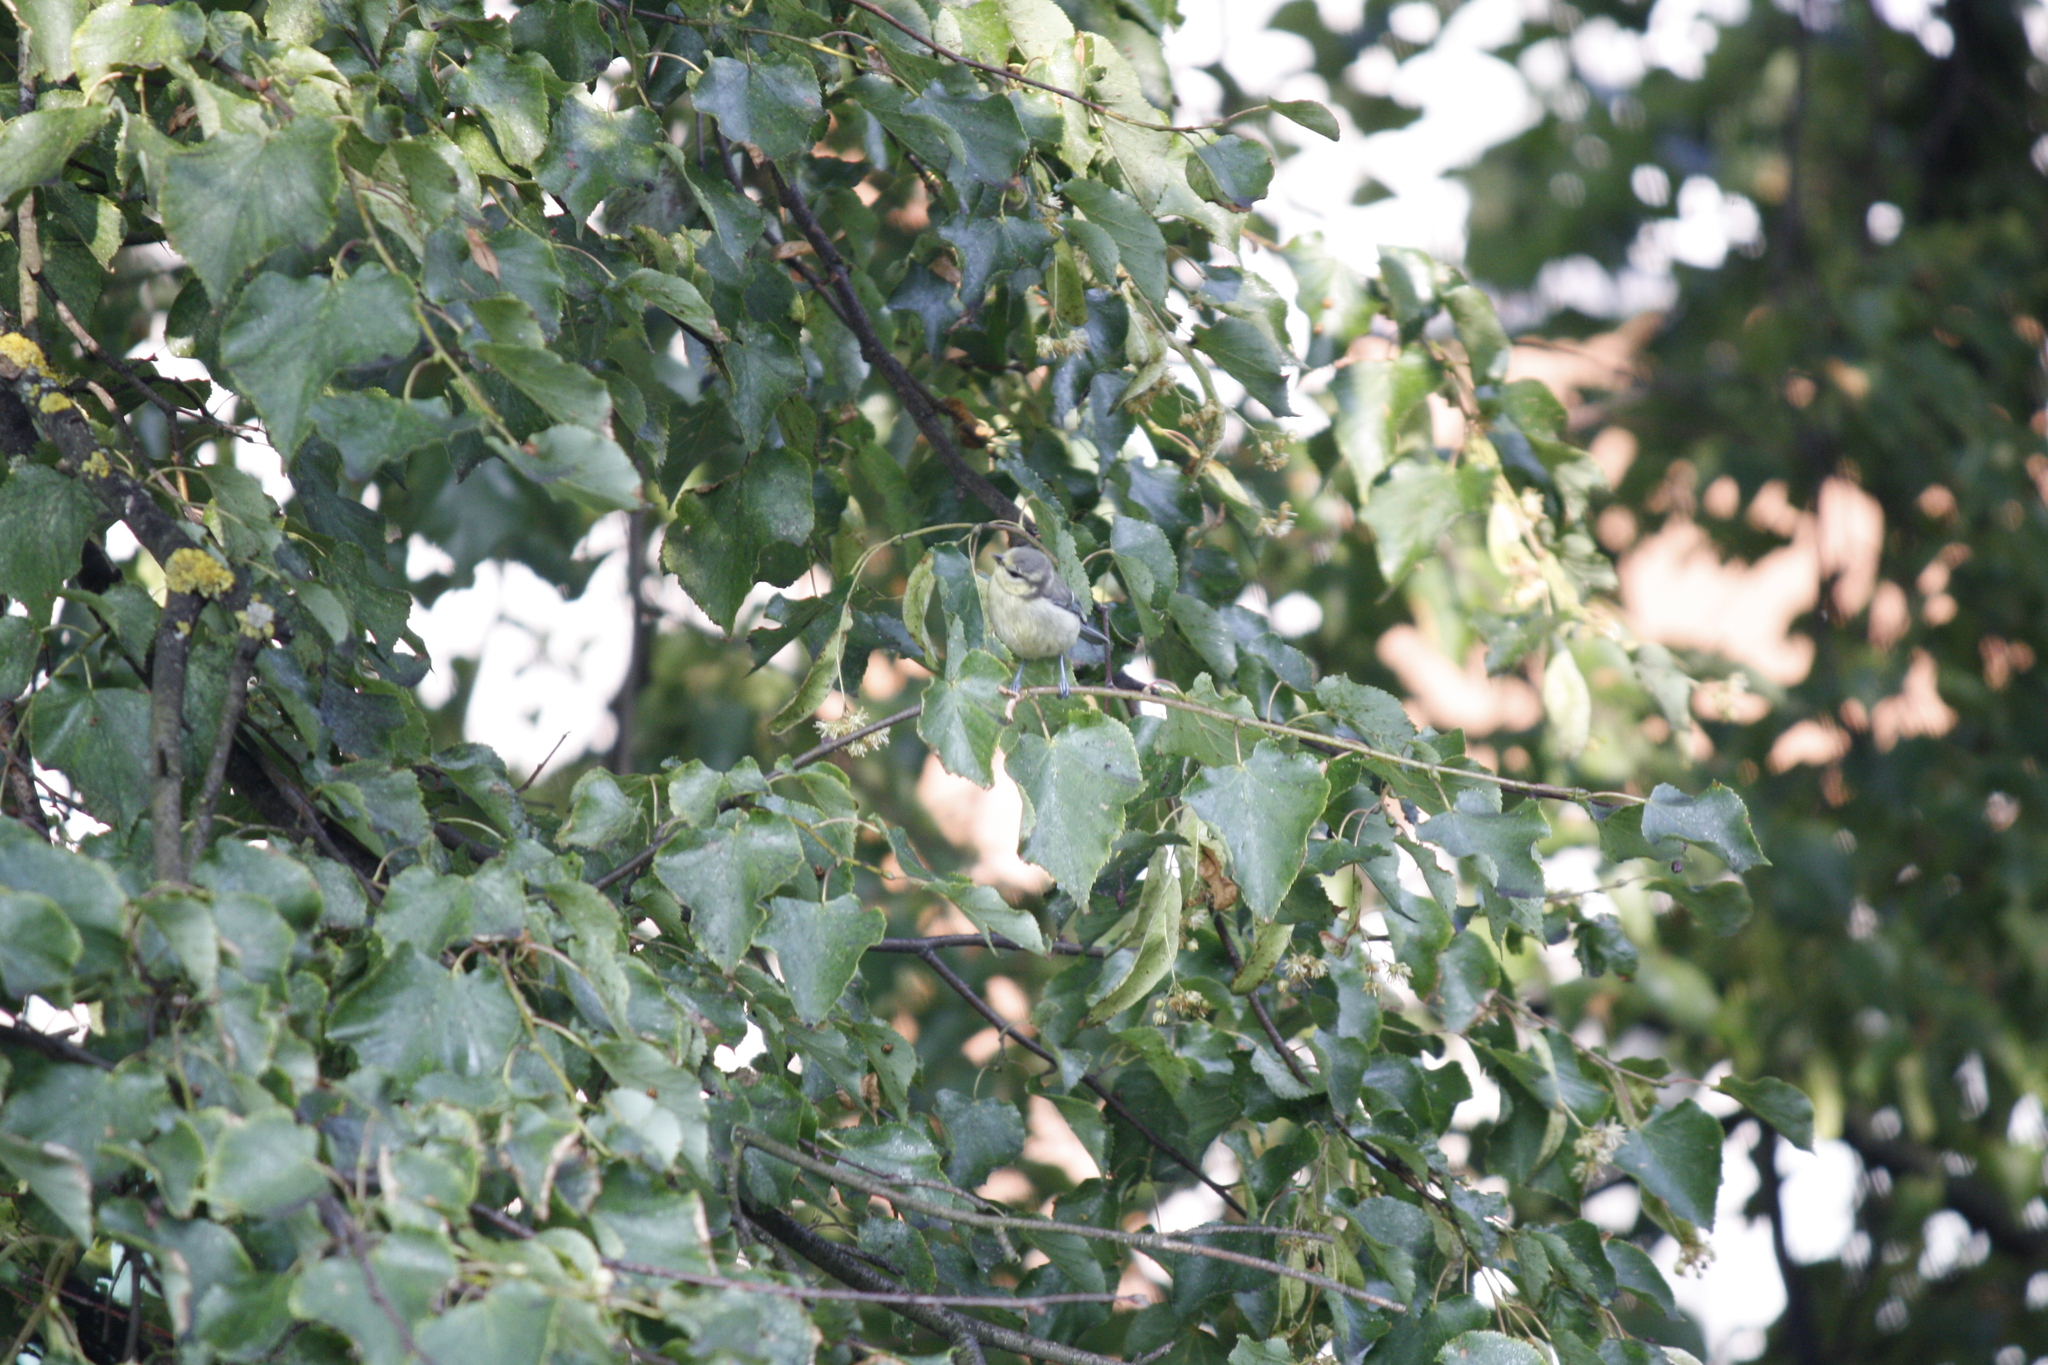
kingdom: Animalia
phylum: Chordata
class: Aves
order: Passeriformes
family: Paridae
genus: Cyanistes
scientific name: Cyanistes caeruleus
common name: Eurasian blue tit
